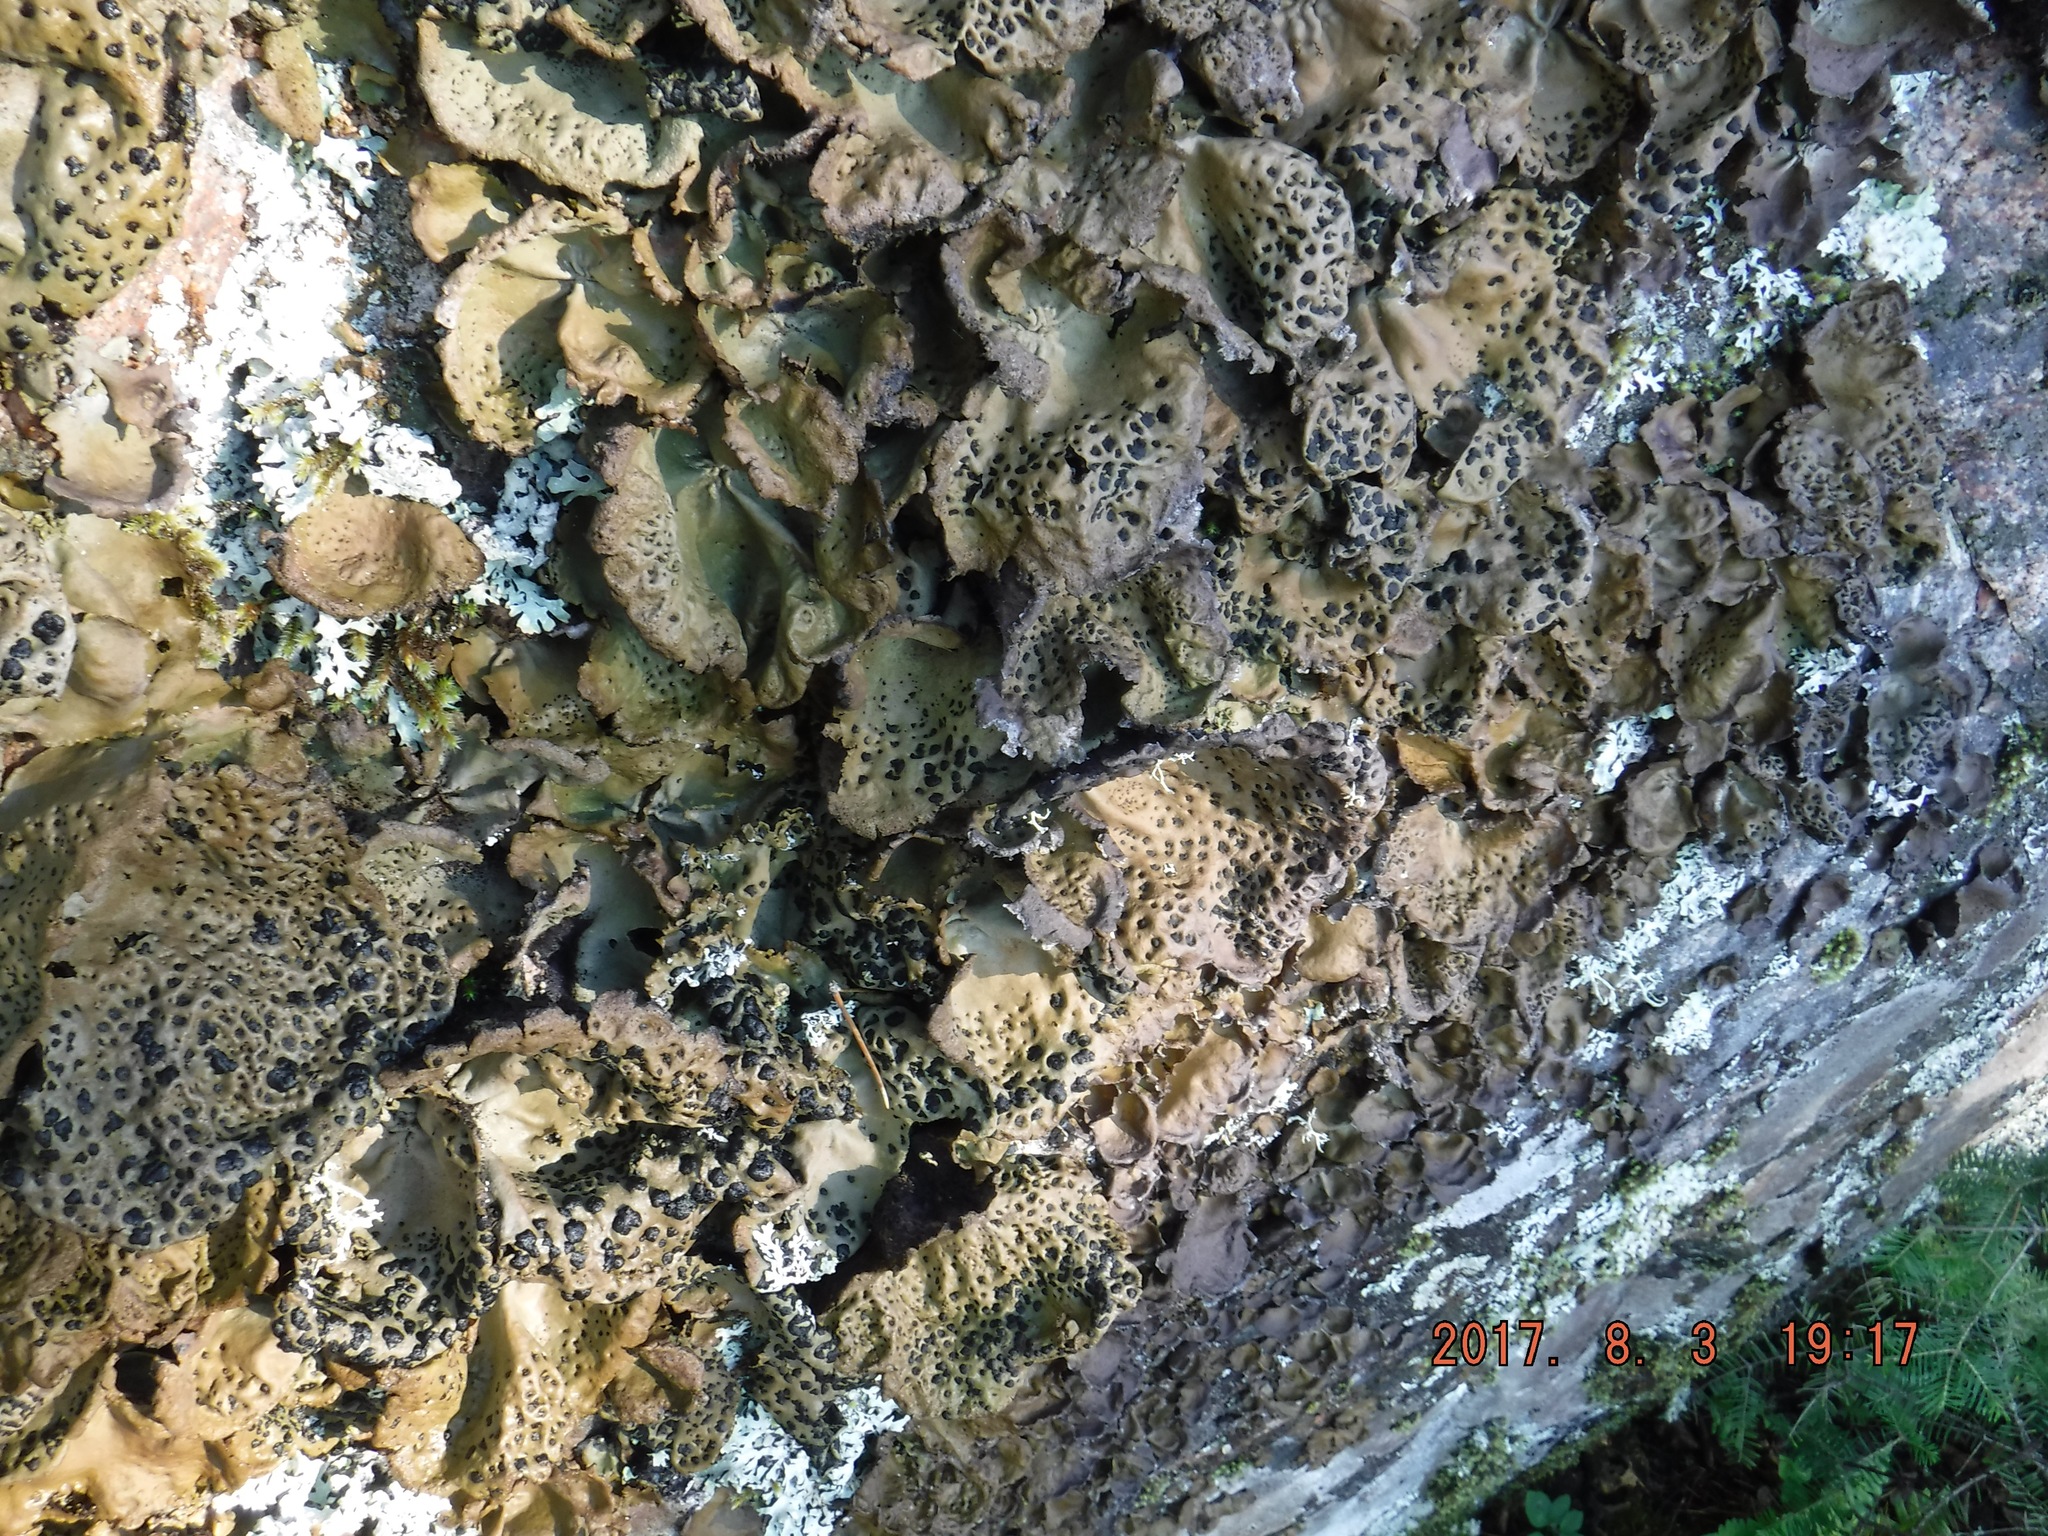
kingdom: Fungi
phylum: Ascomycota
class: Lecanoromycetes
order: Umbilicariales
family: Umbilicariaceae
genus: Umbilicaria
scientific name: Umbilicaria muhlenbergii
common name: Lesser rocktripe
